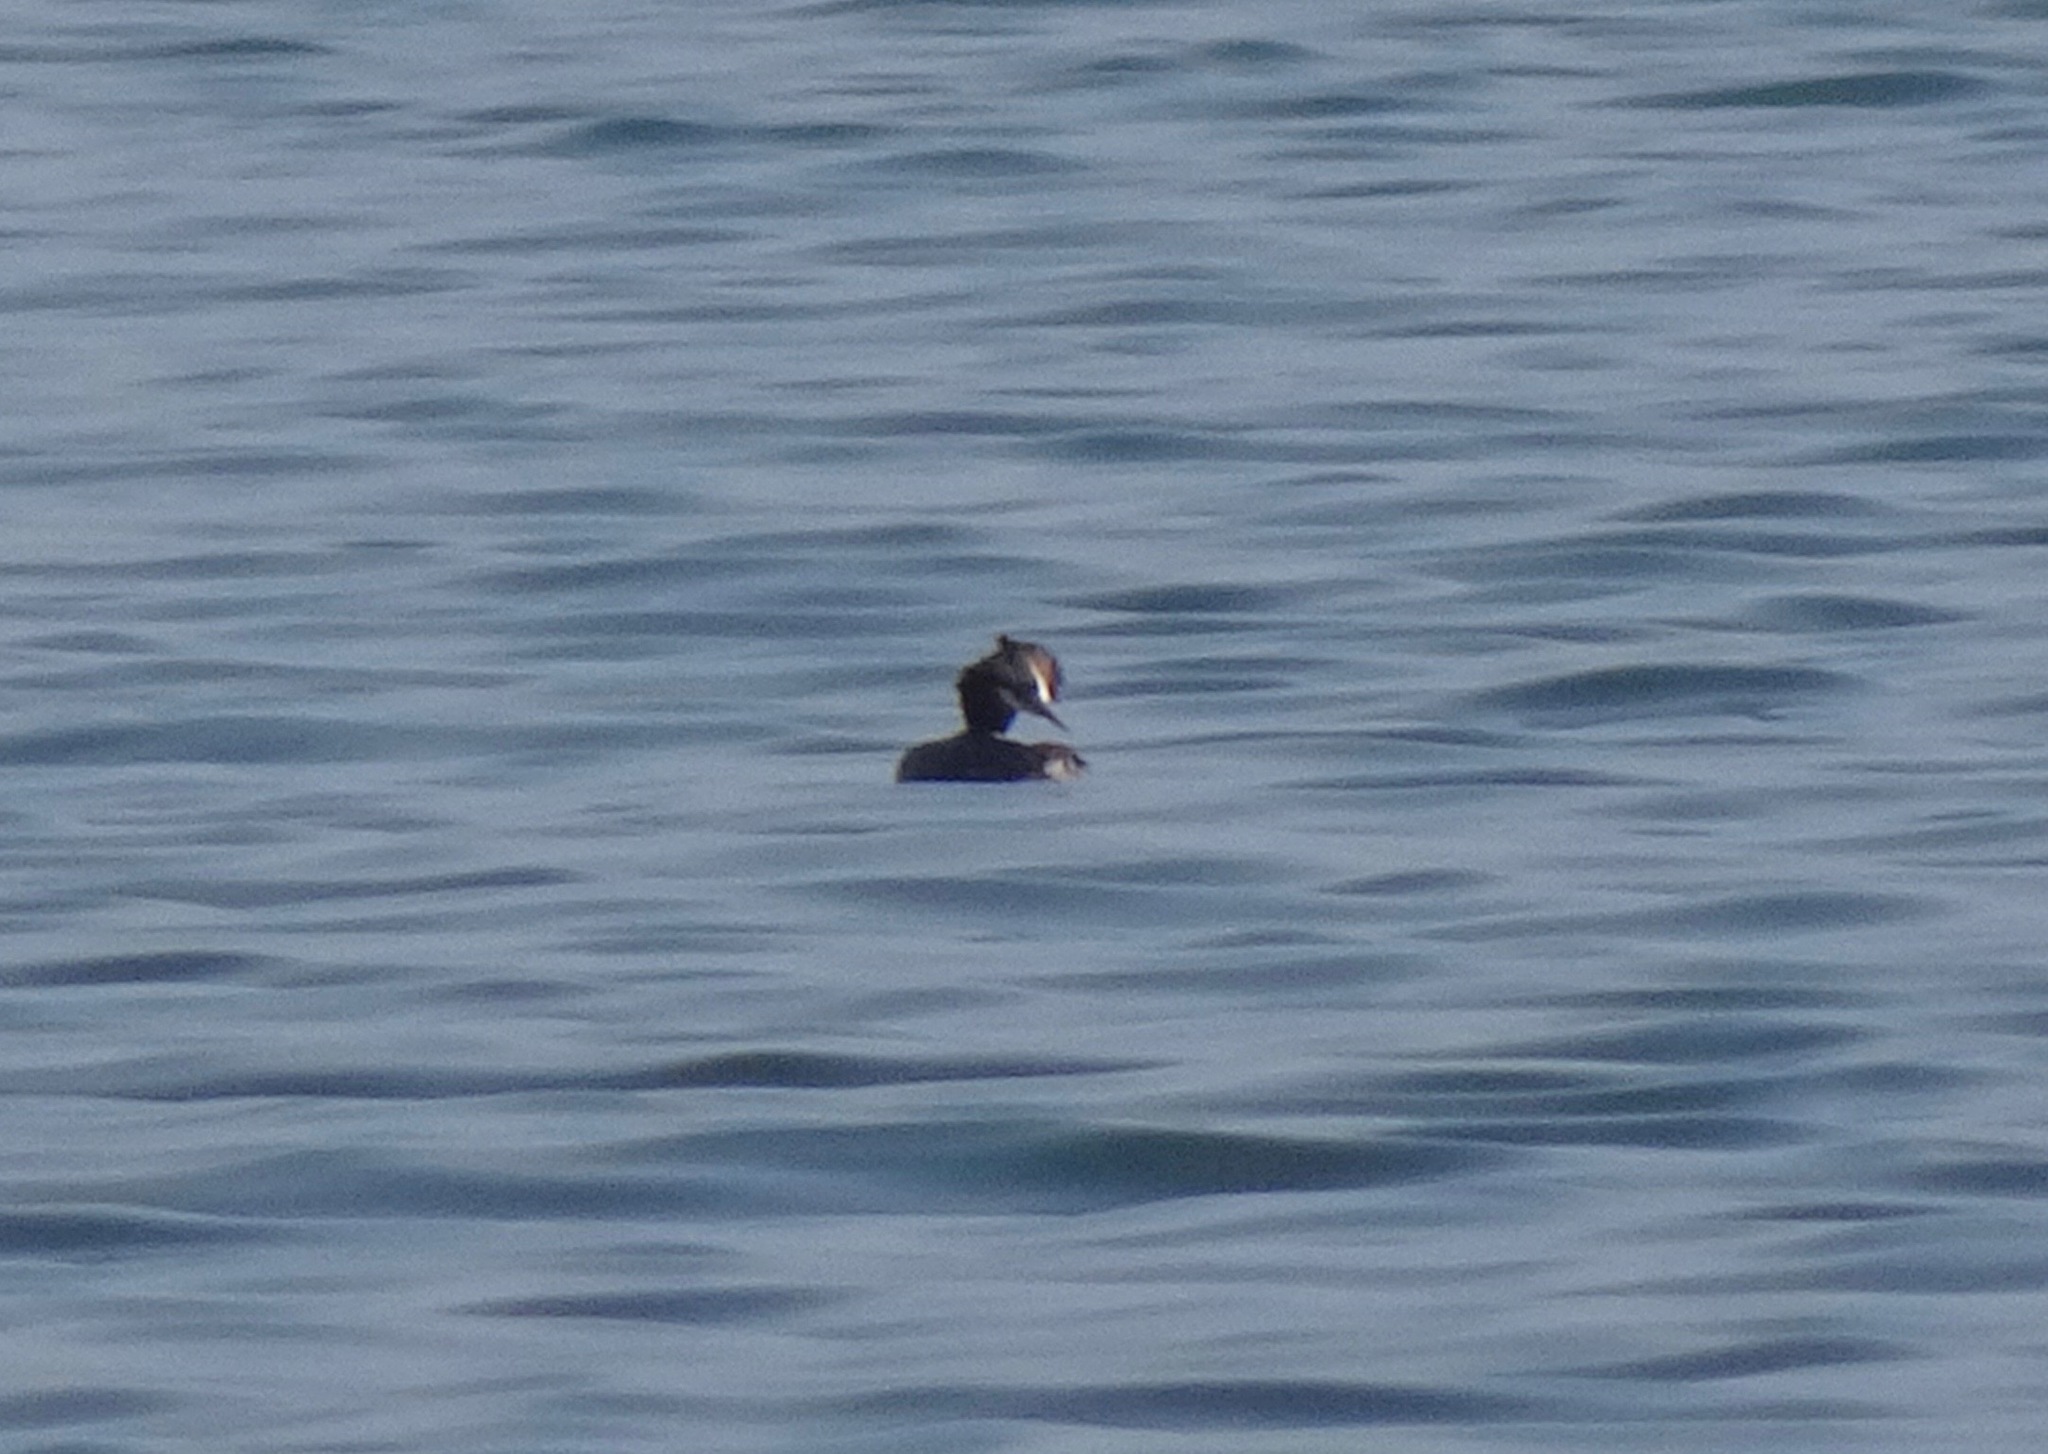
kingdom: Animalia
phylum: Chordata
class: Aves
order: Podicipediformes
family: Podicipedidae
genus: Podiceps
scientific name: Podiceps cristatus
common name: Great crested grebe
